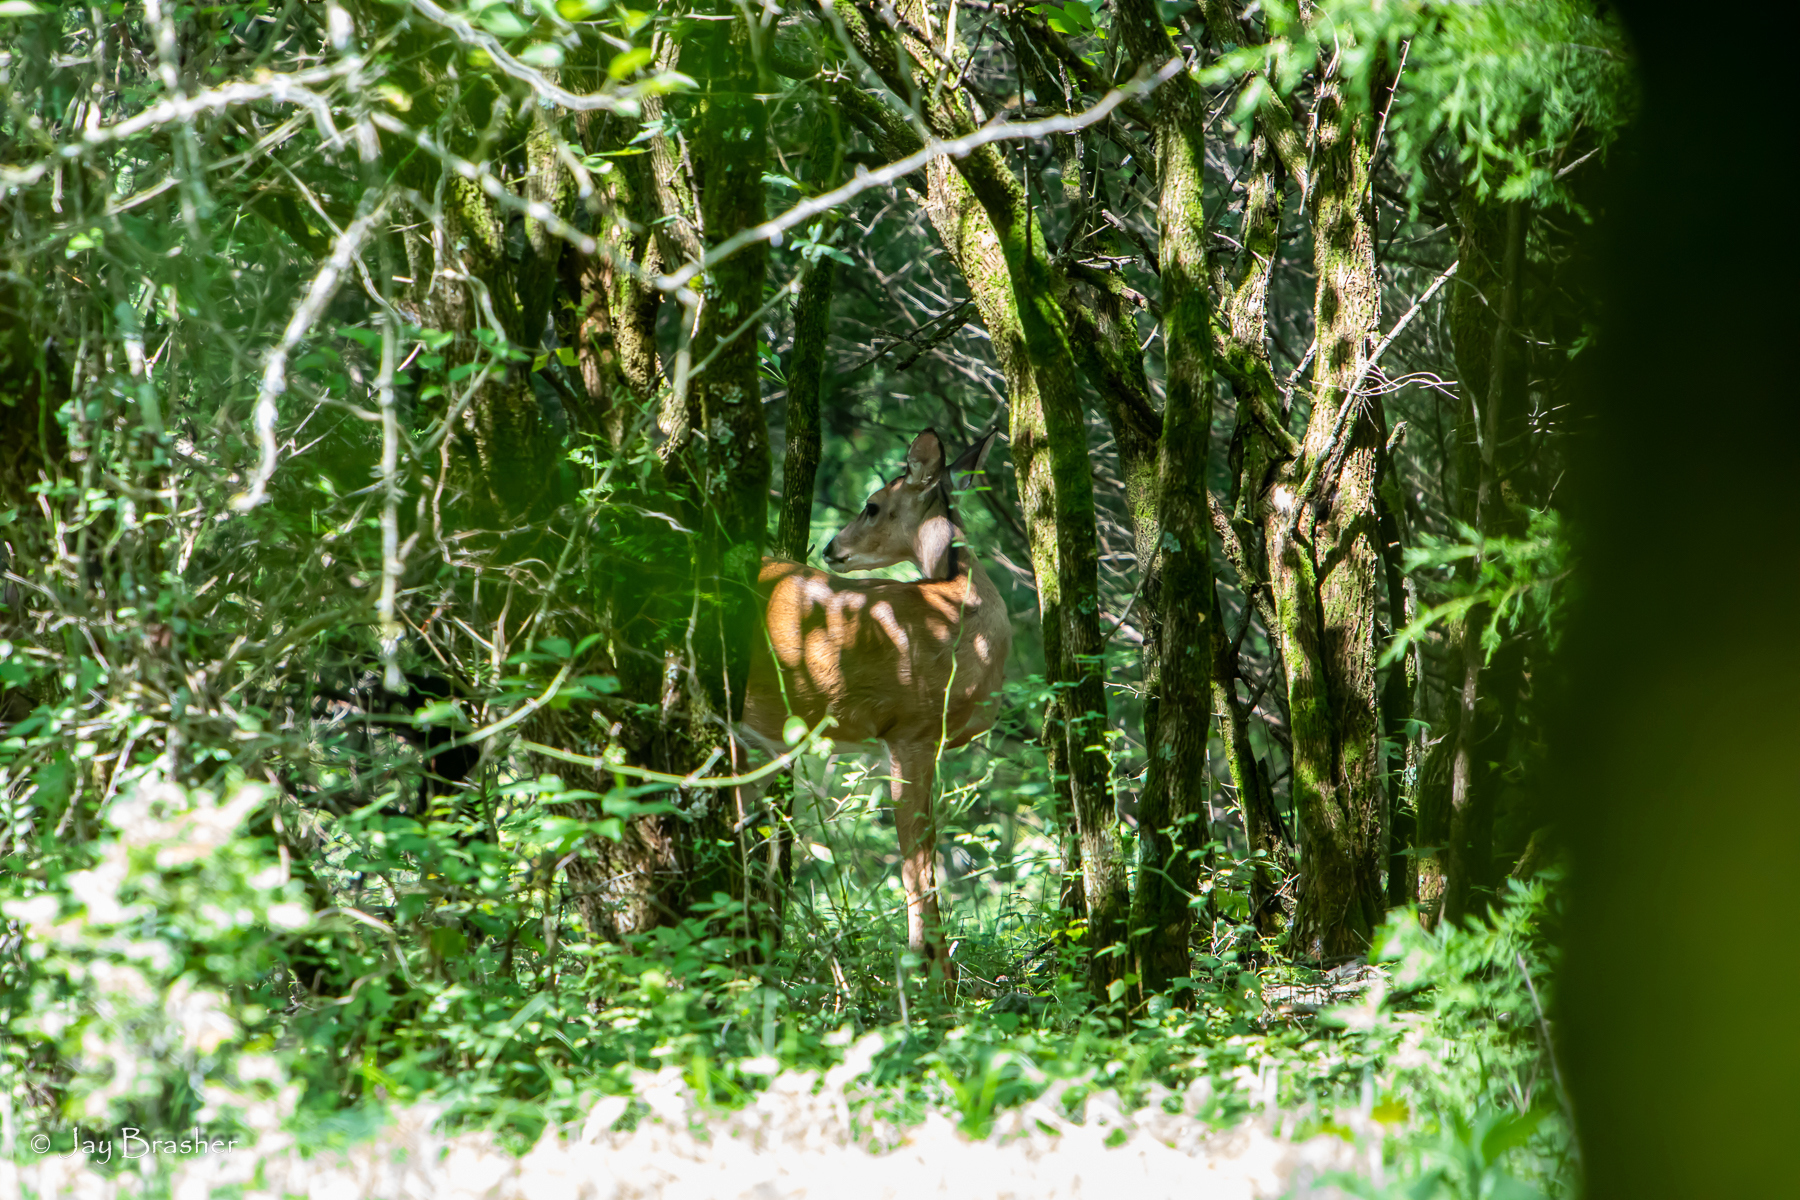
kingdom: Animalia
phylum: Chordata
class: Mammalia
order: Artiodactyla
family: Cervidae
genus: Odocoileus
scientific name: Odocoileus virginianus
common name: White-tailed deer
